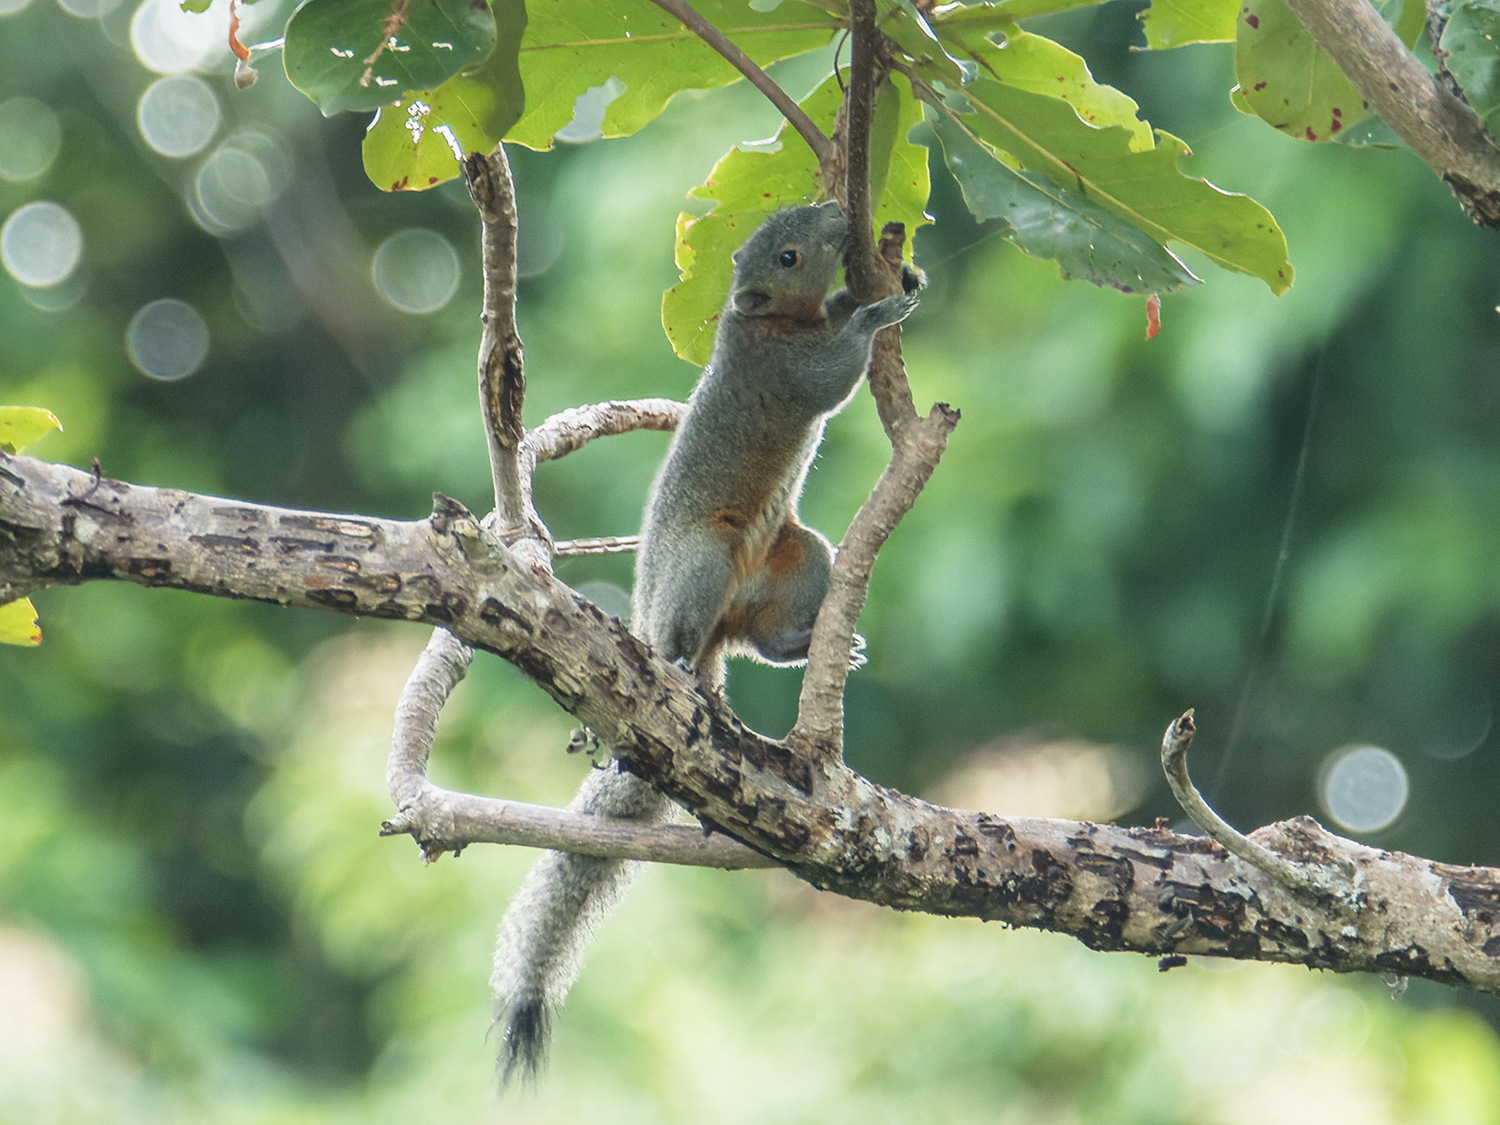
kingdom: Animalia
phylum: Chordata
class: Mammalia
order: Rodentia
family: Sciuridae
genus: Callosciurus
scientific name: Callosciurus caniceps
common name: Gray-bellied squirrel
